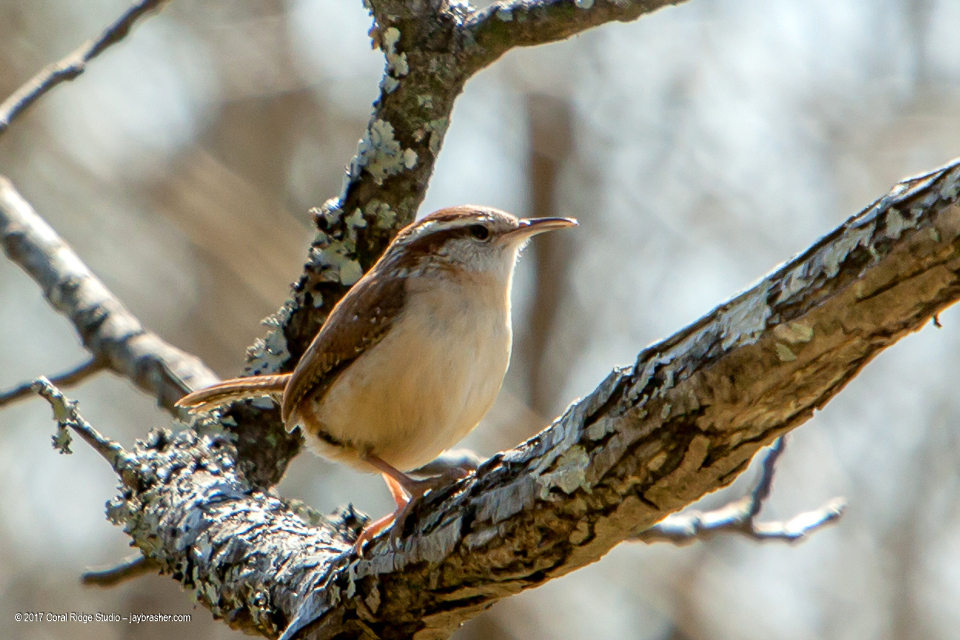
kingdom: Animalia
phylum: Chordata
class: Aves
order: Passeriformes
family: Troglodytidae
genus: Thryothorus
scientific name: Thryothorus ludovicianus
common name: Carolina wren
